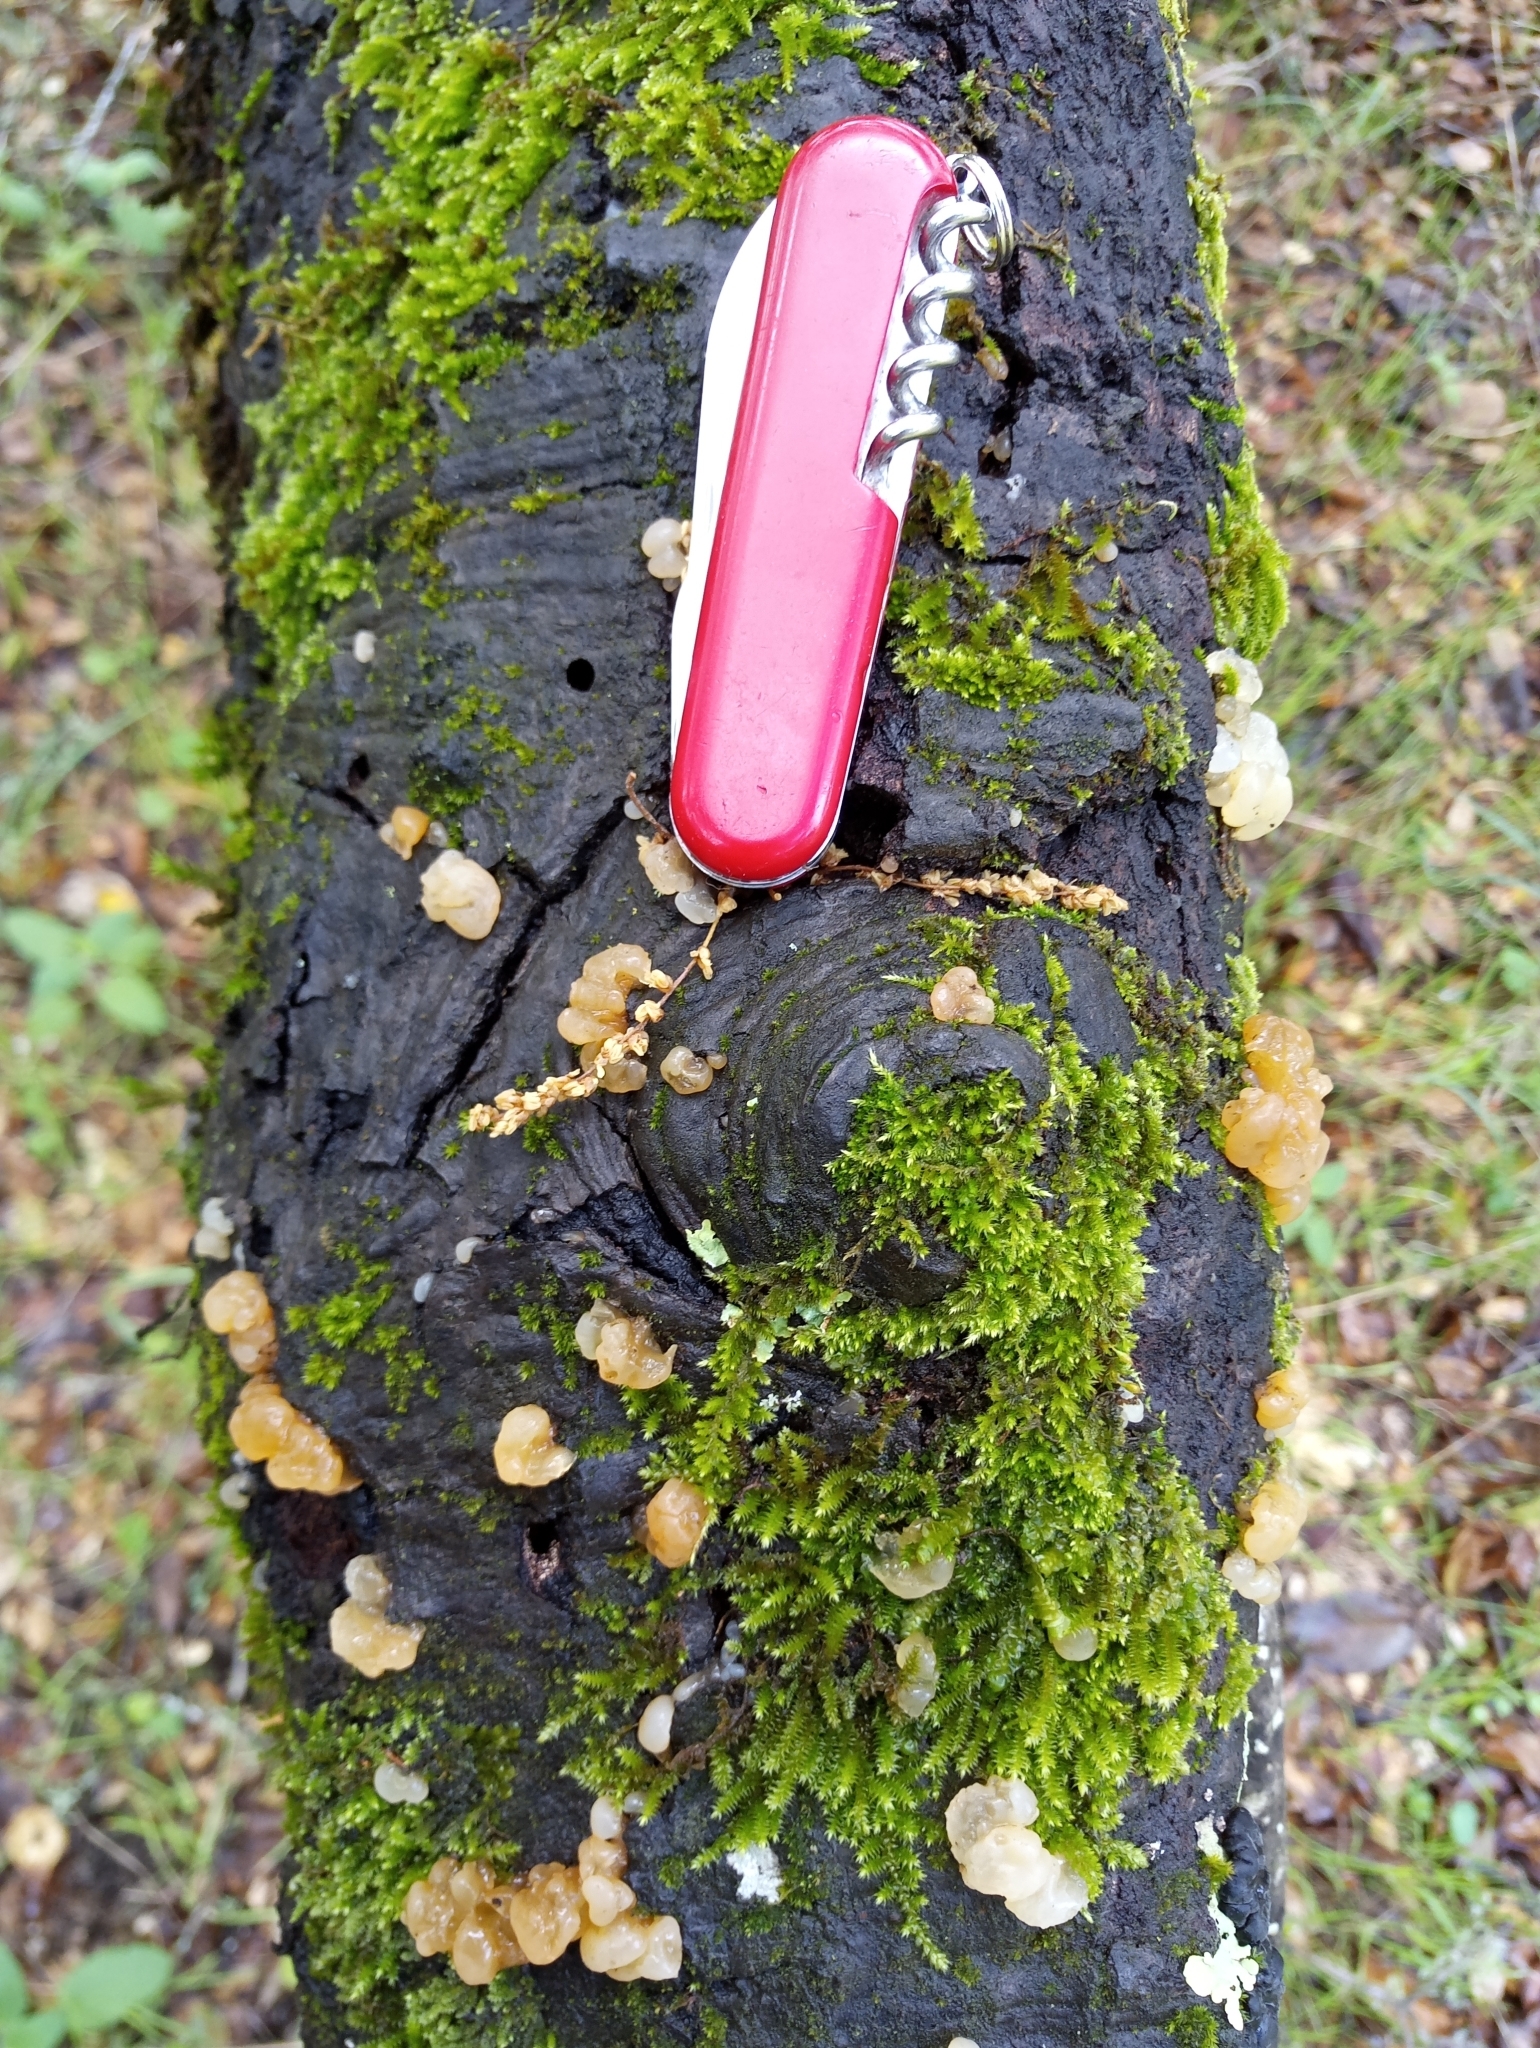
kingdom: Fungi
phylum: Basidiomycota
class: Tremellomycetes
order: Tremellales
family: Tremellaceae
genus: Tremella
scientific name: Tremella mesenterica
